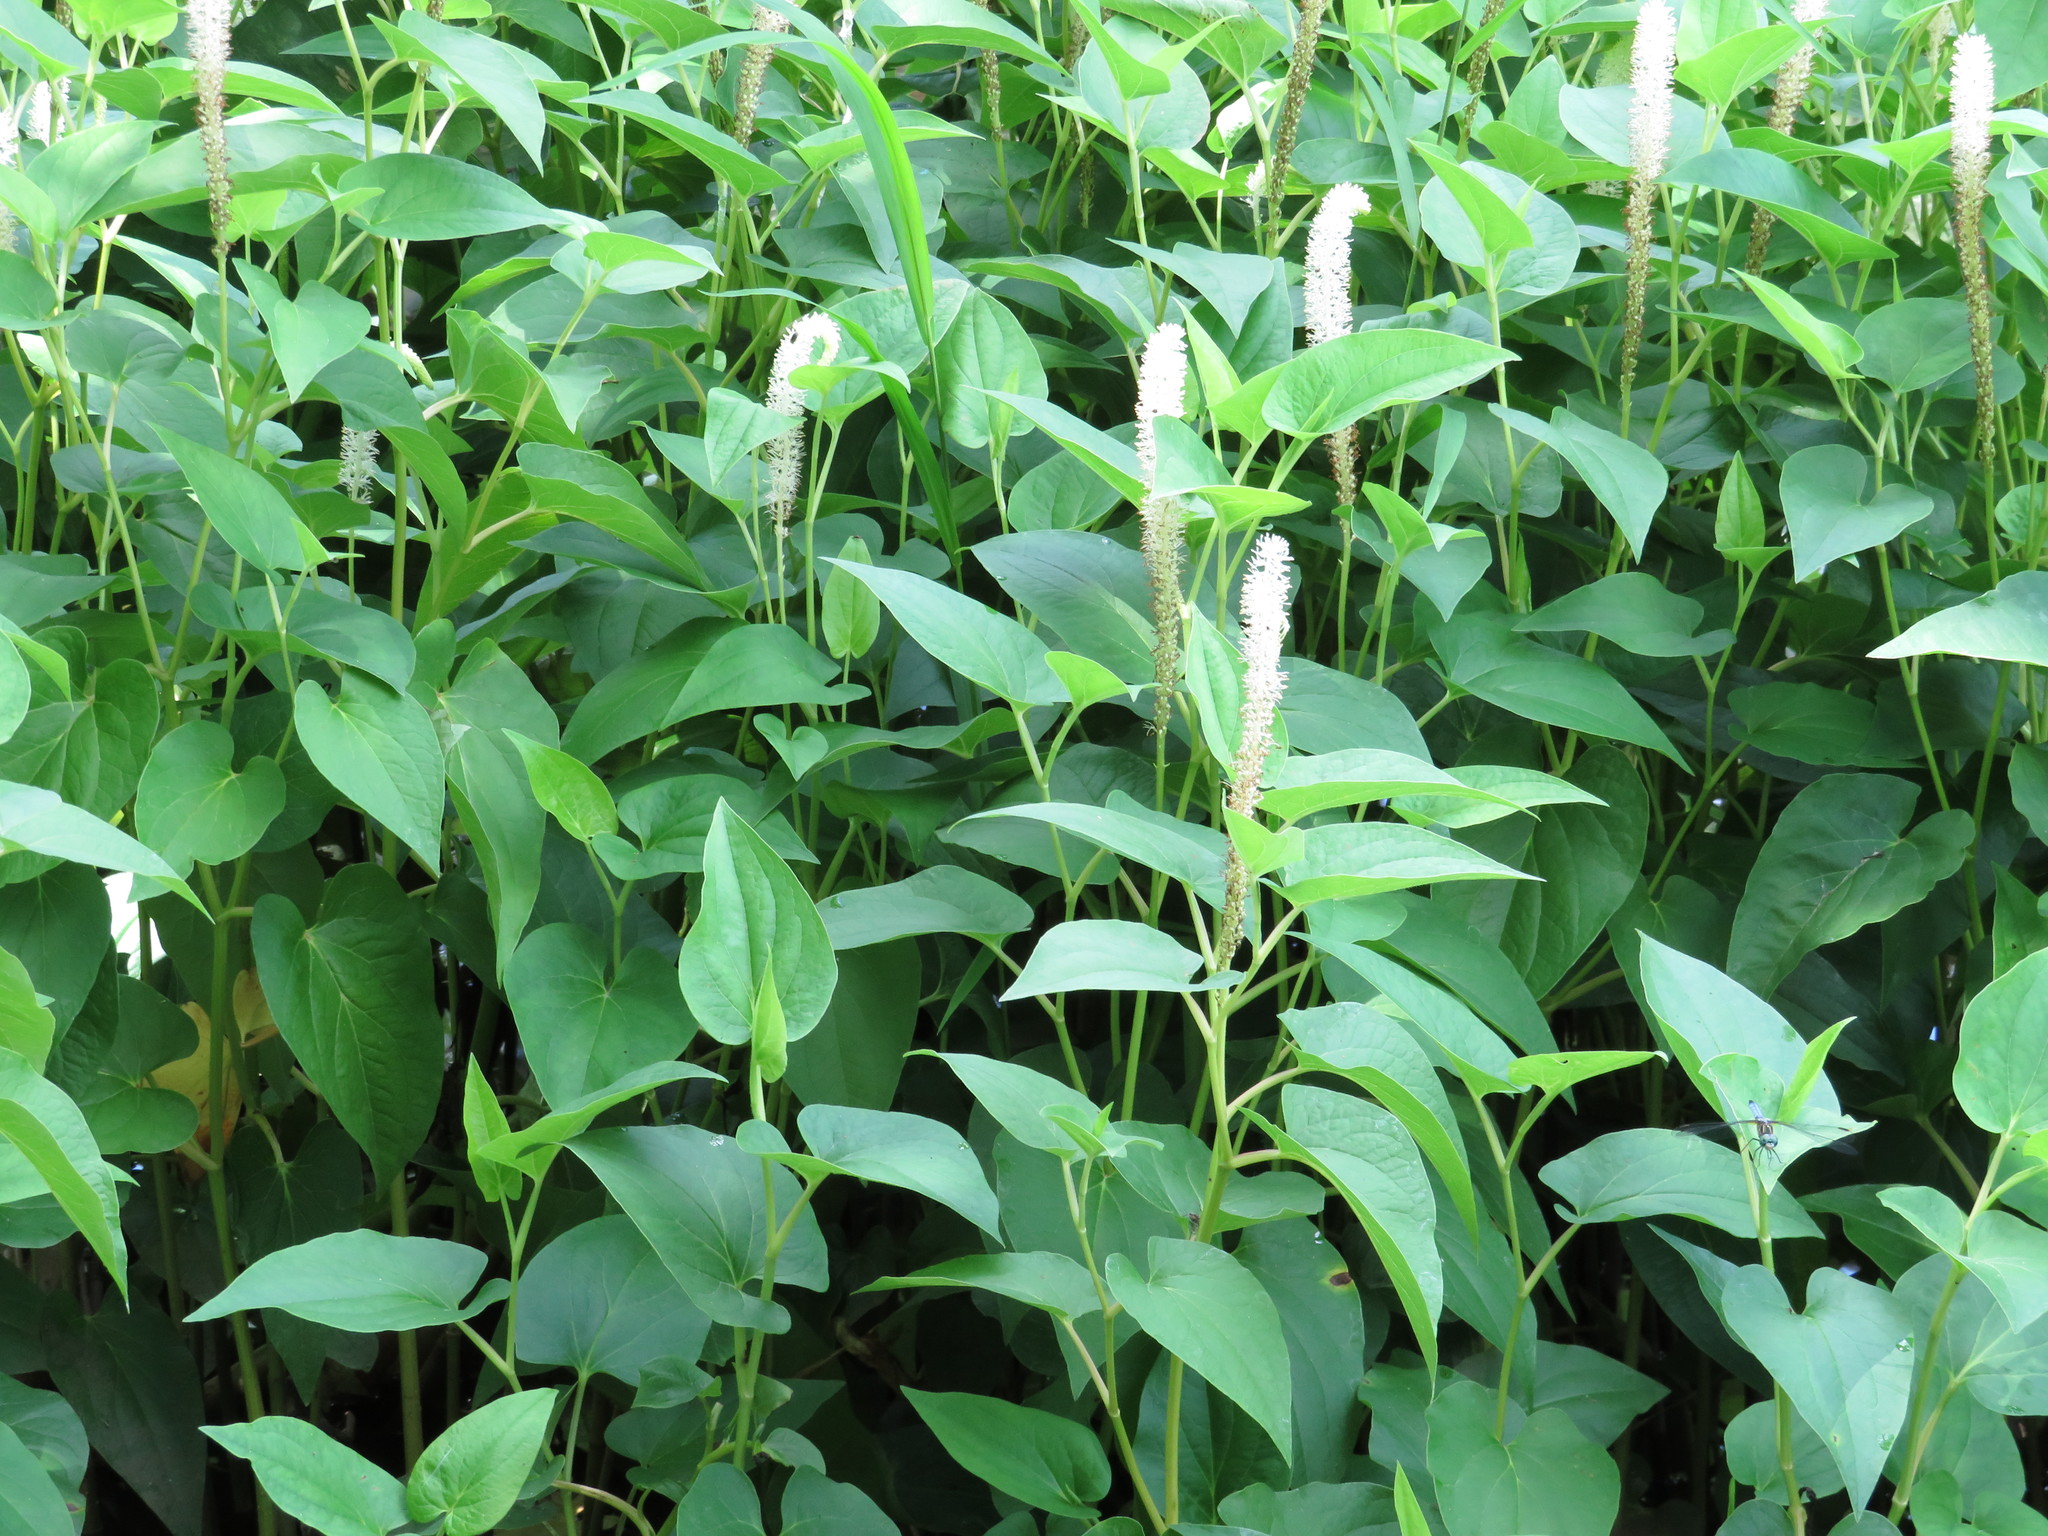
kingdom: Plantae
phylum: Tracheophyta
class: Magnoliopsida
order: Piperales
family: Saururaceae
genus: Saururus
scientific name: Saururus cernuus
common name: Lizard's-tail
